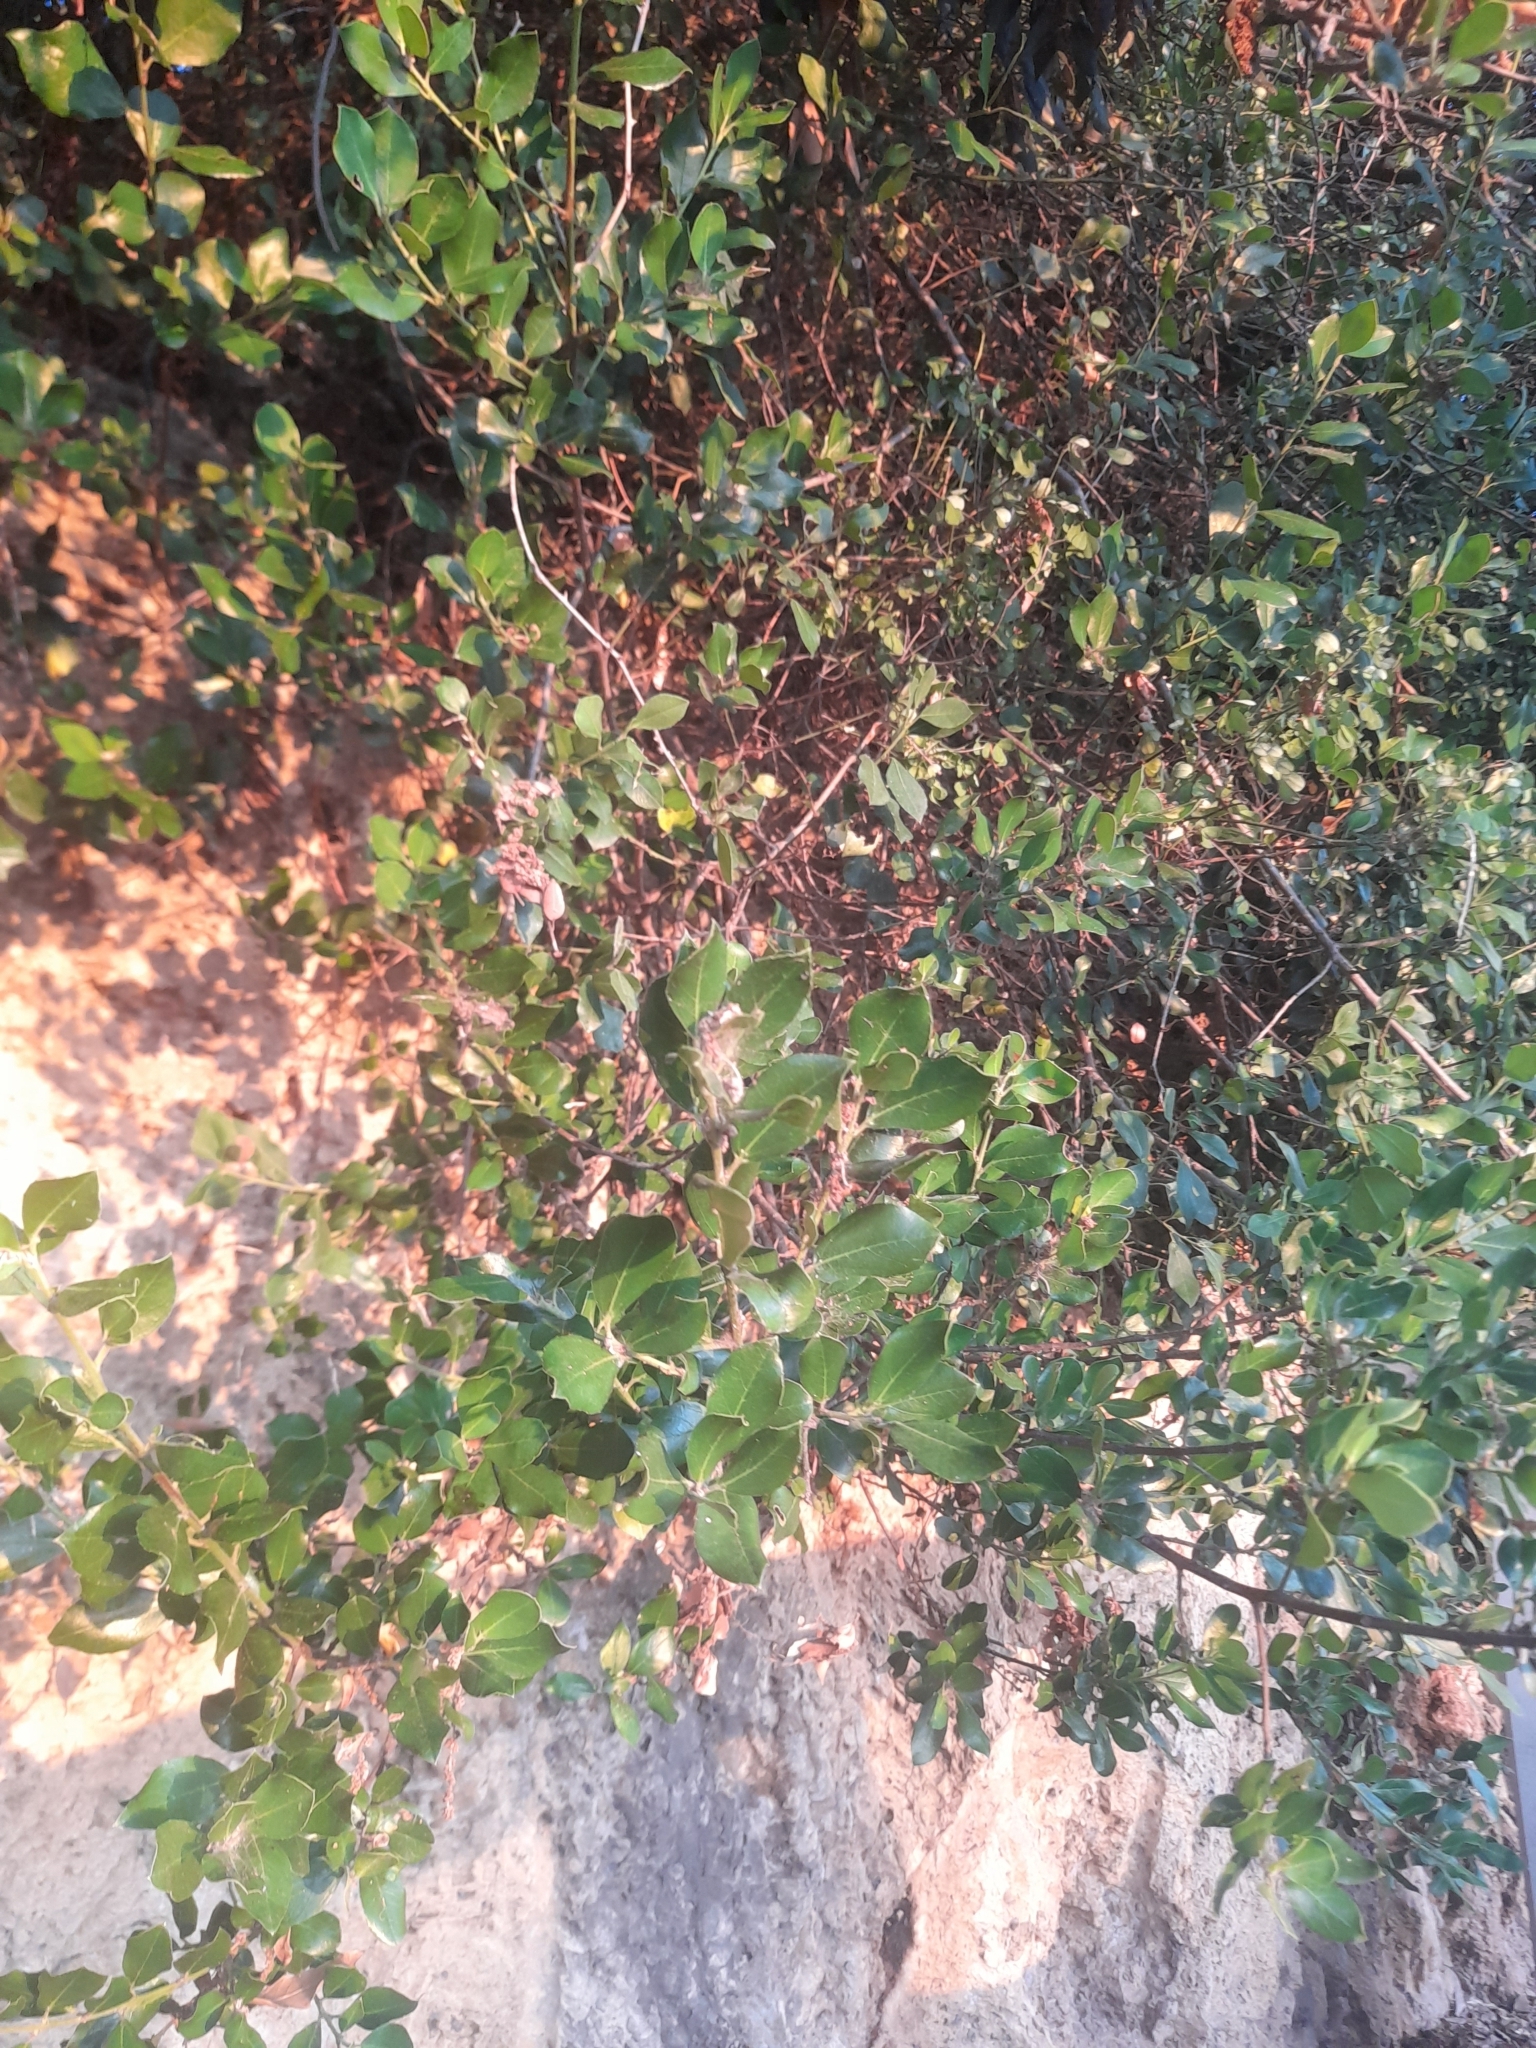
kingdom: Plantae
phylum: Tracheophyta
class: Magnoliopsida
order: Rosales
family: Rhamnaceae
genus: Rhamnus
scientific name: Rhamnus alaternus
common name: Mediterranean buckthorn
